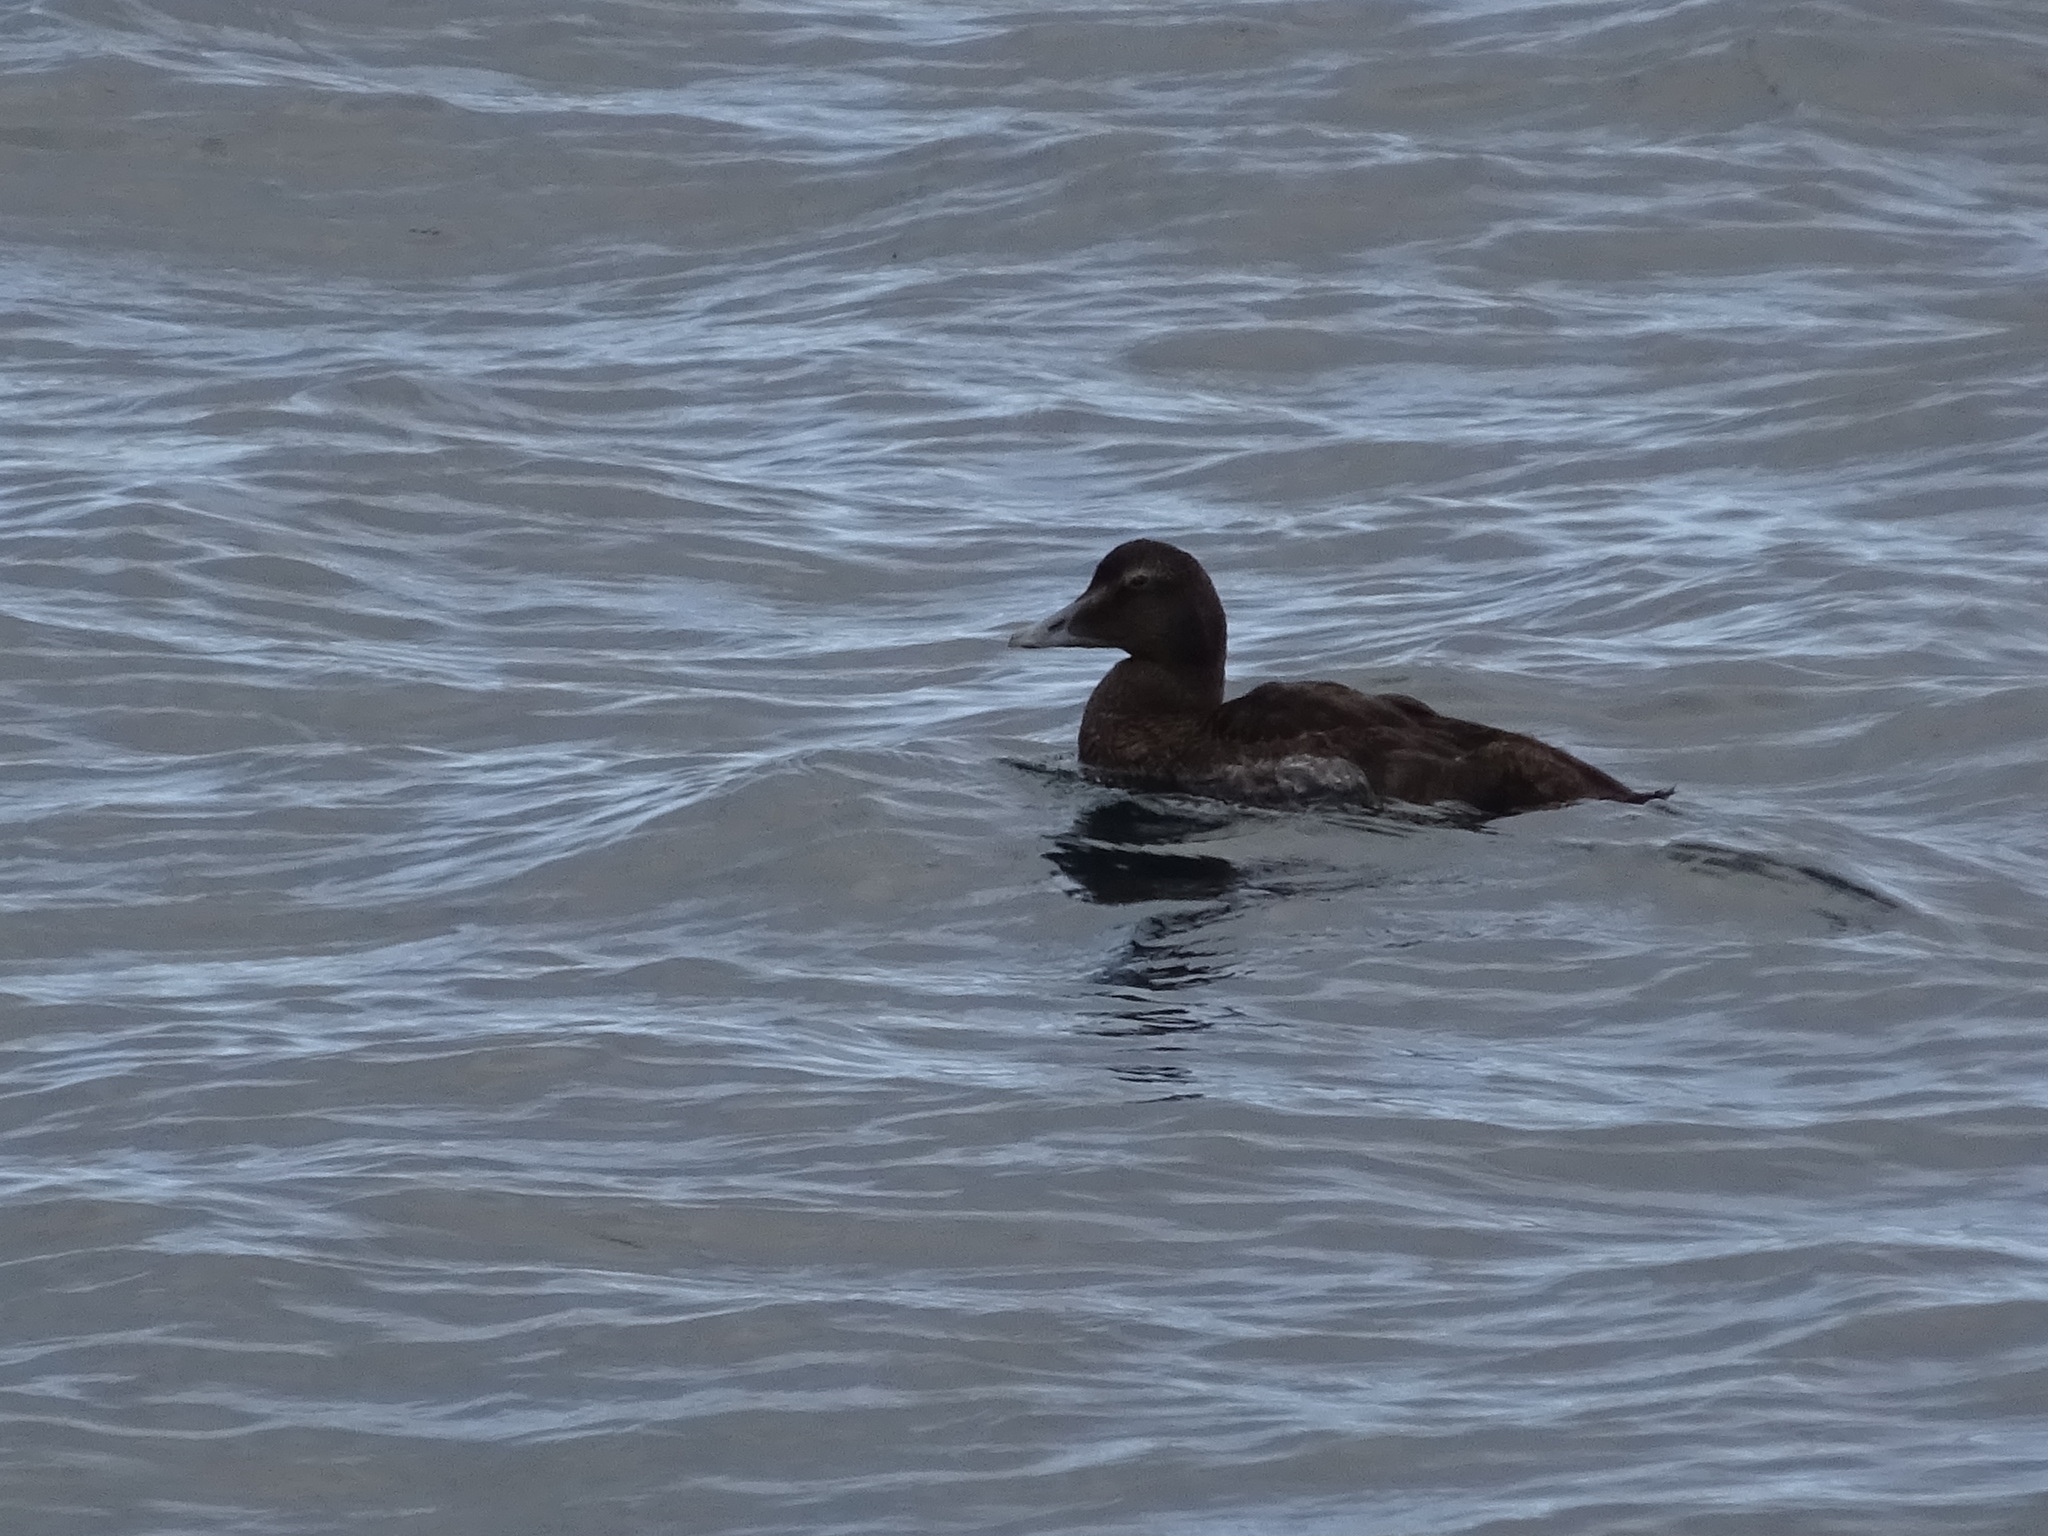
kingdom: Animalia
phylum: Chordata
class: Aves
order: Anseriformes
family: Anatidae
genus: Somateria
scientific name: Somateria mollissima
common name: Common eider
